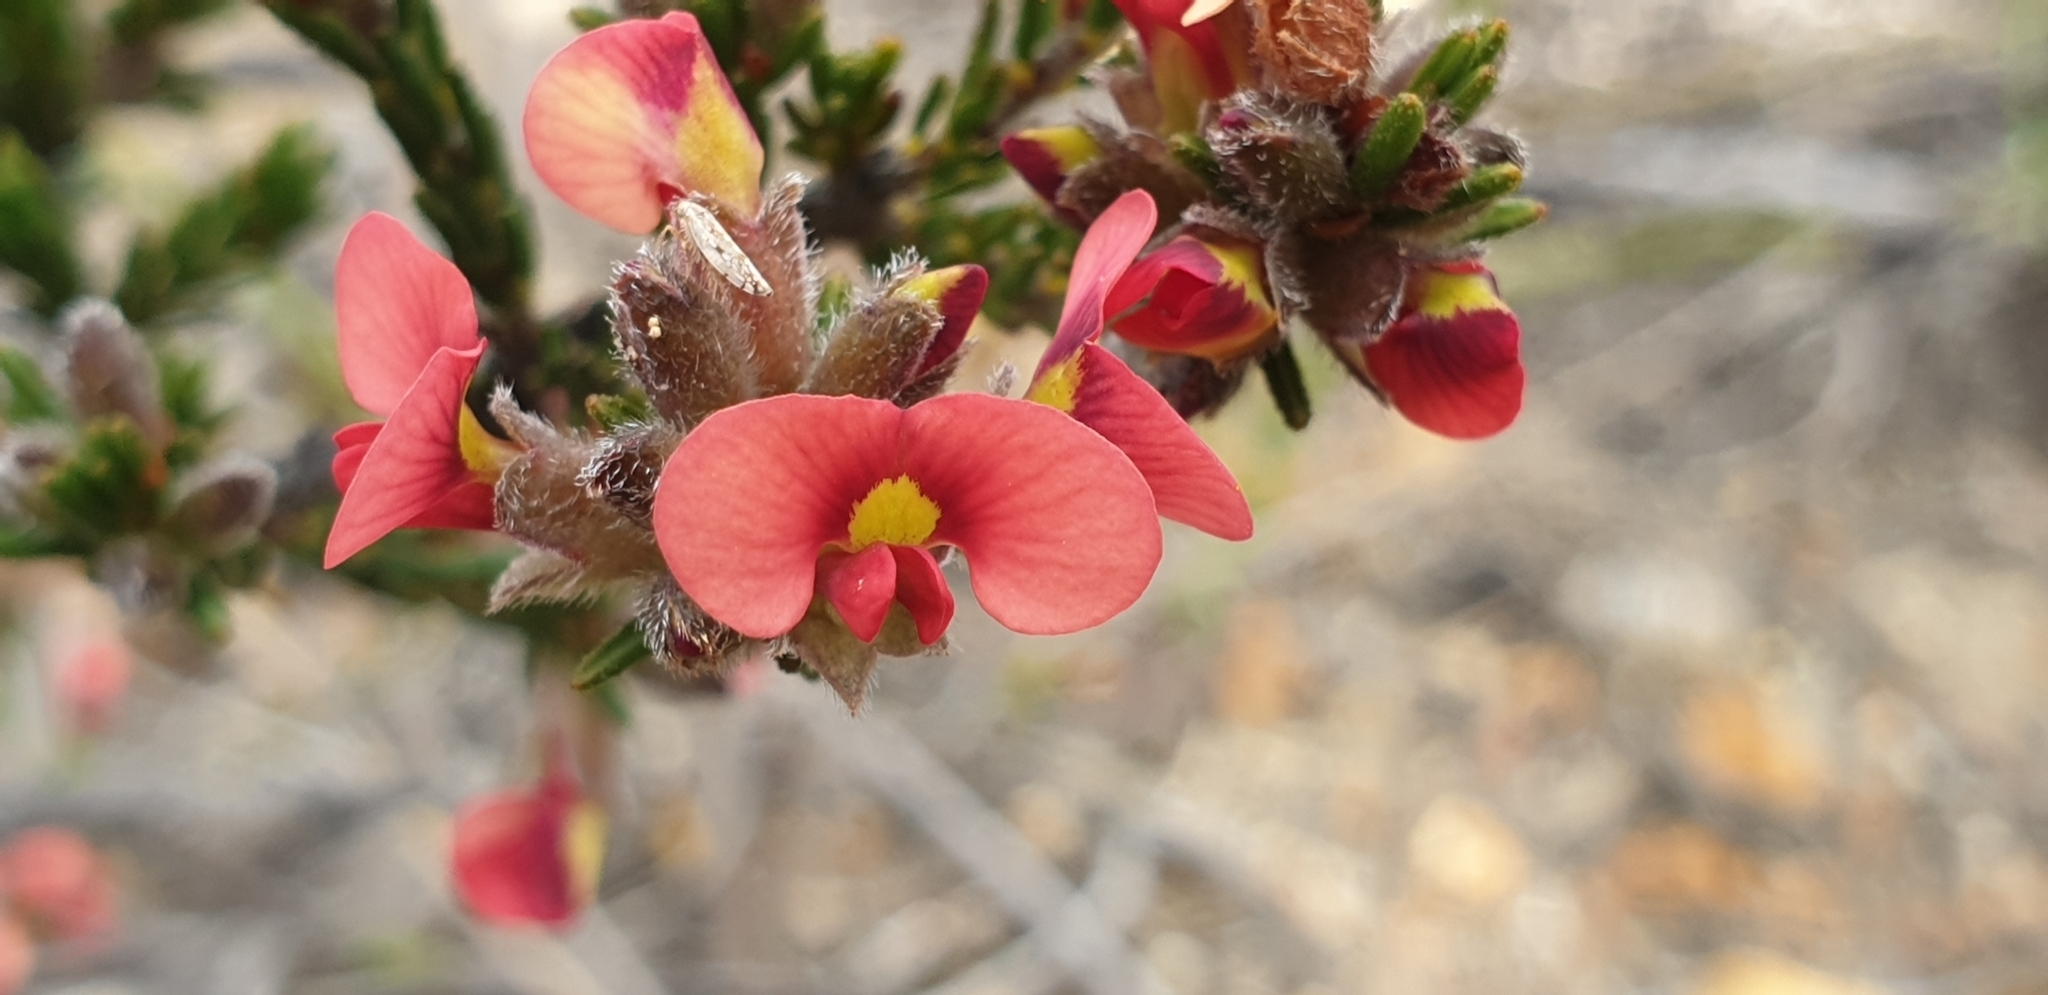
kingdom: Plantae
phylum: Tracheophyta
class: Magnoliopsida
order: Fabales
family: Fabaceae
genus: Dillwynia
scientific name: Dillwynia sericea
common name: Showy parrot-pea
